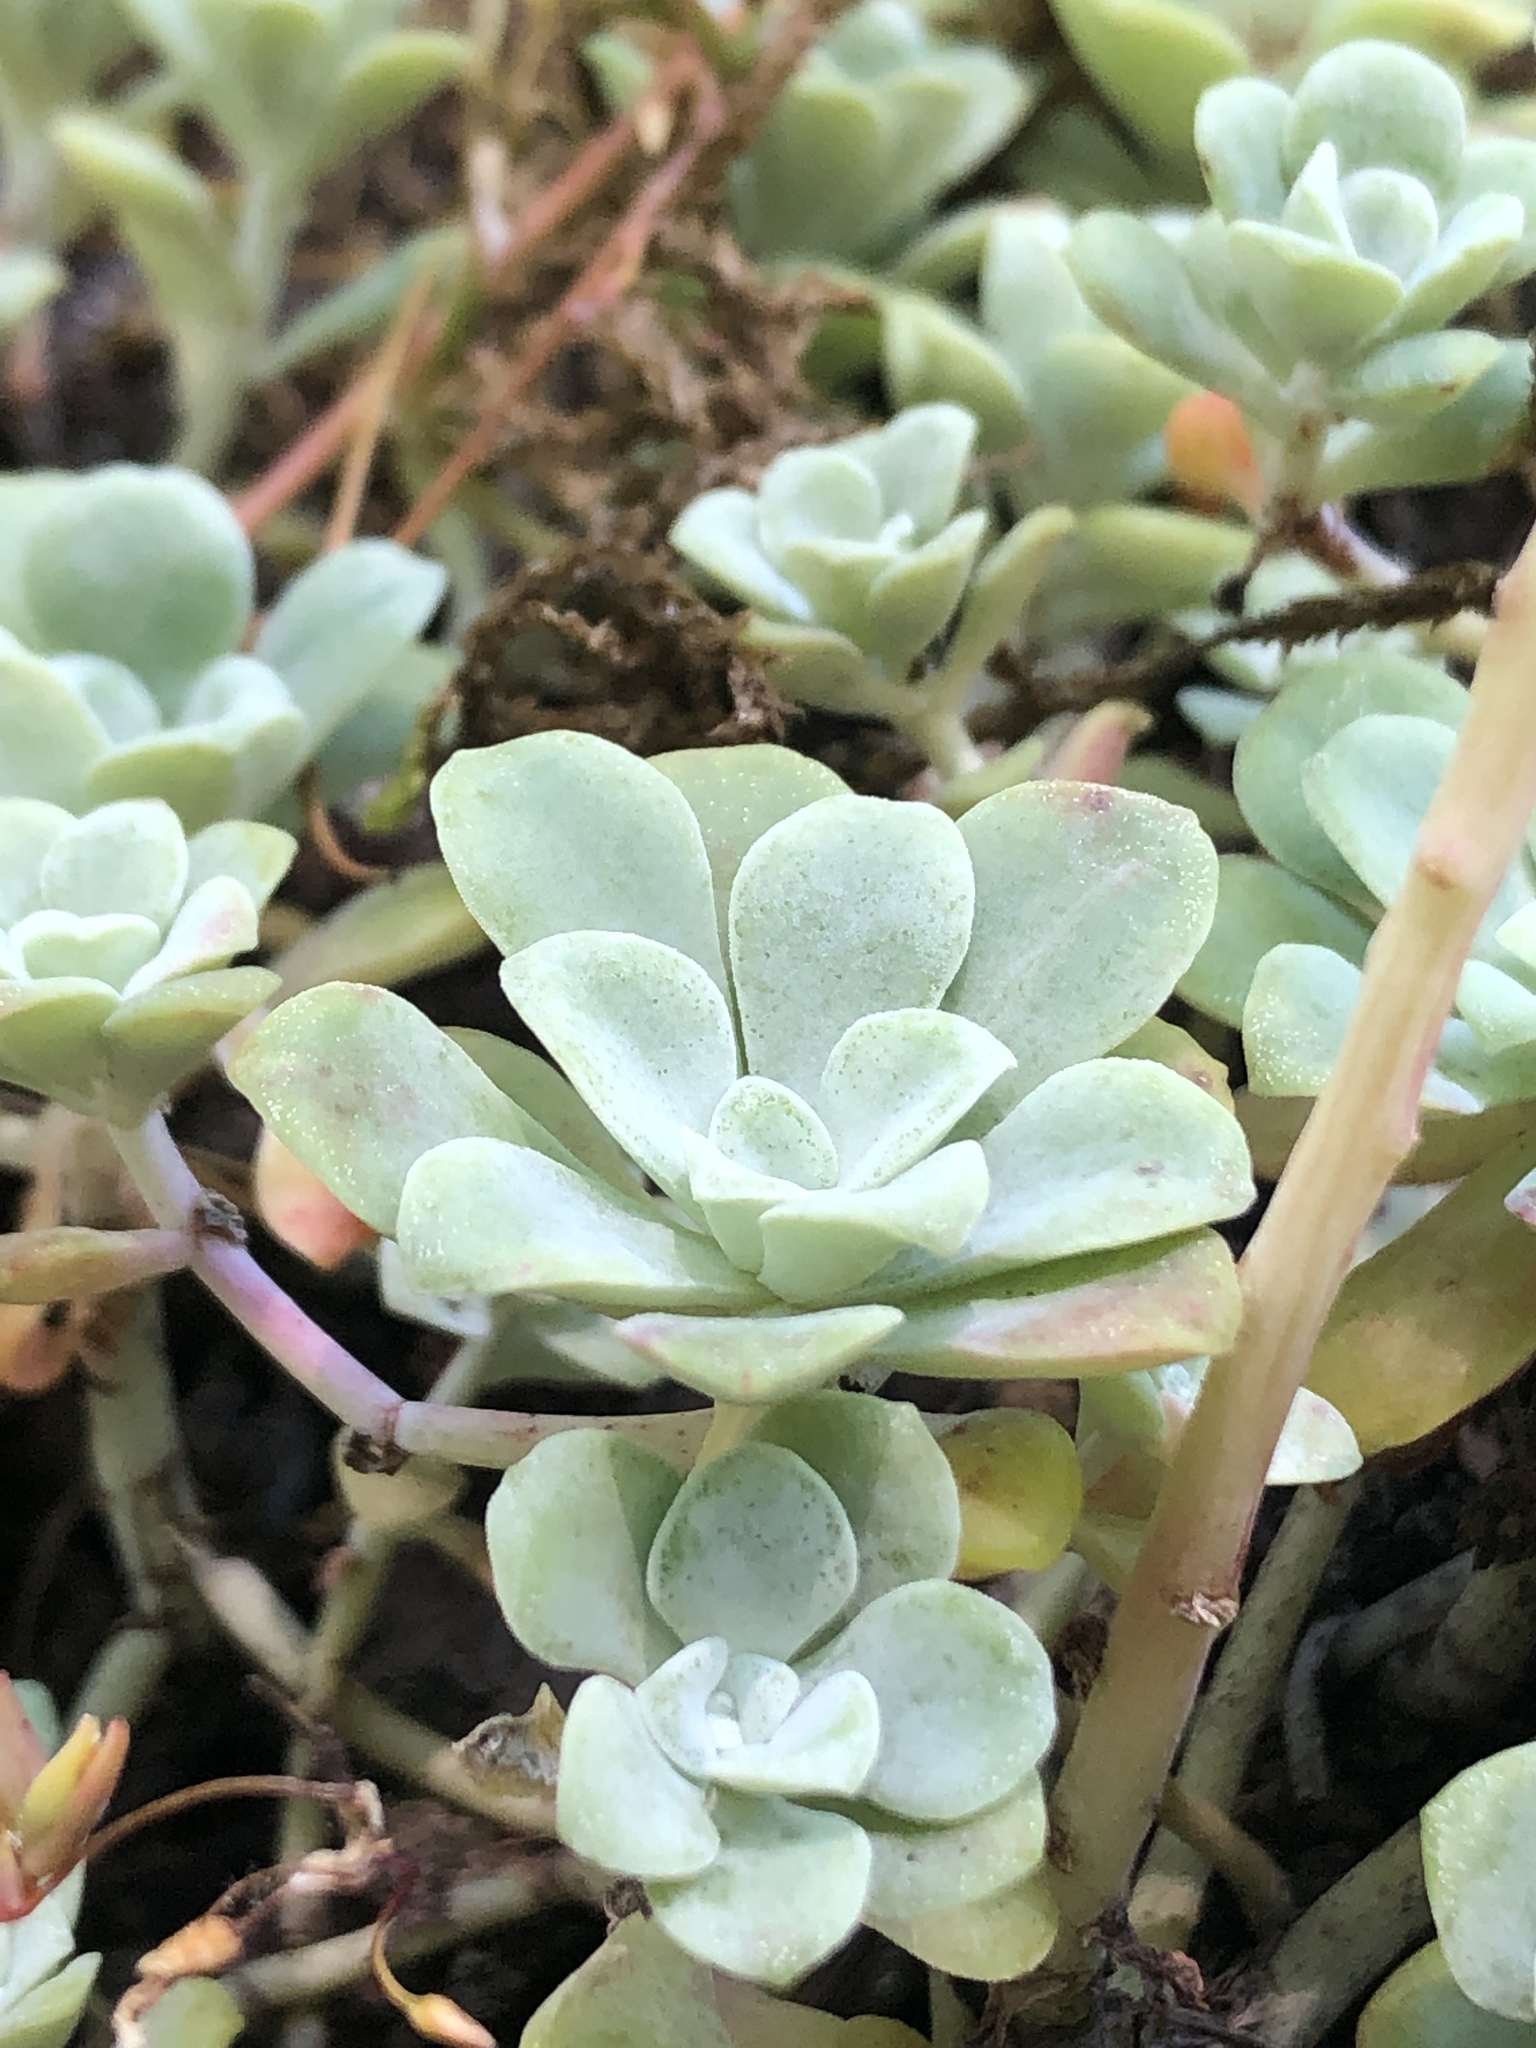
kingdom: Plantae
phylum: Tracheophyta
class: Magnoliopsida
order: Saxifragales
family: Crassulaceae
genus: Sedum
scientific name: Sedum spathulifolium
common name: Colorado stonecrop
